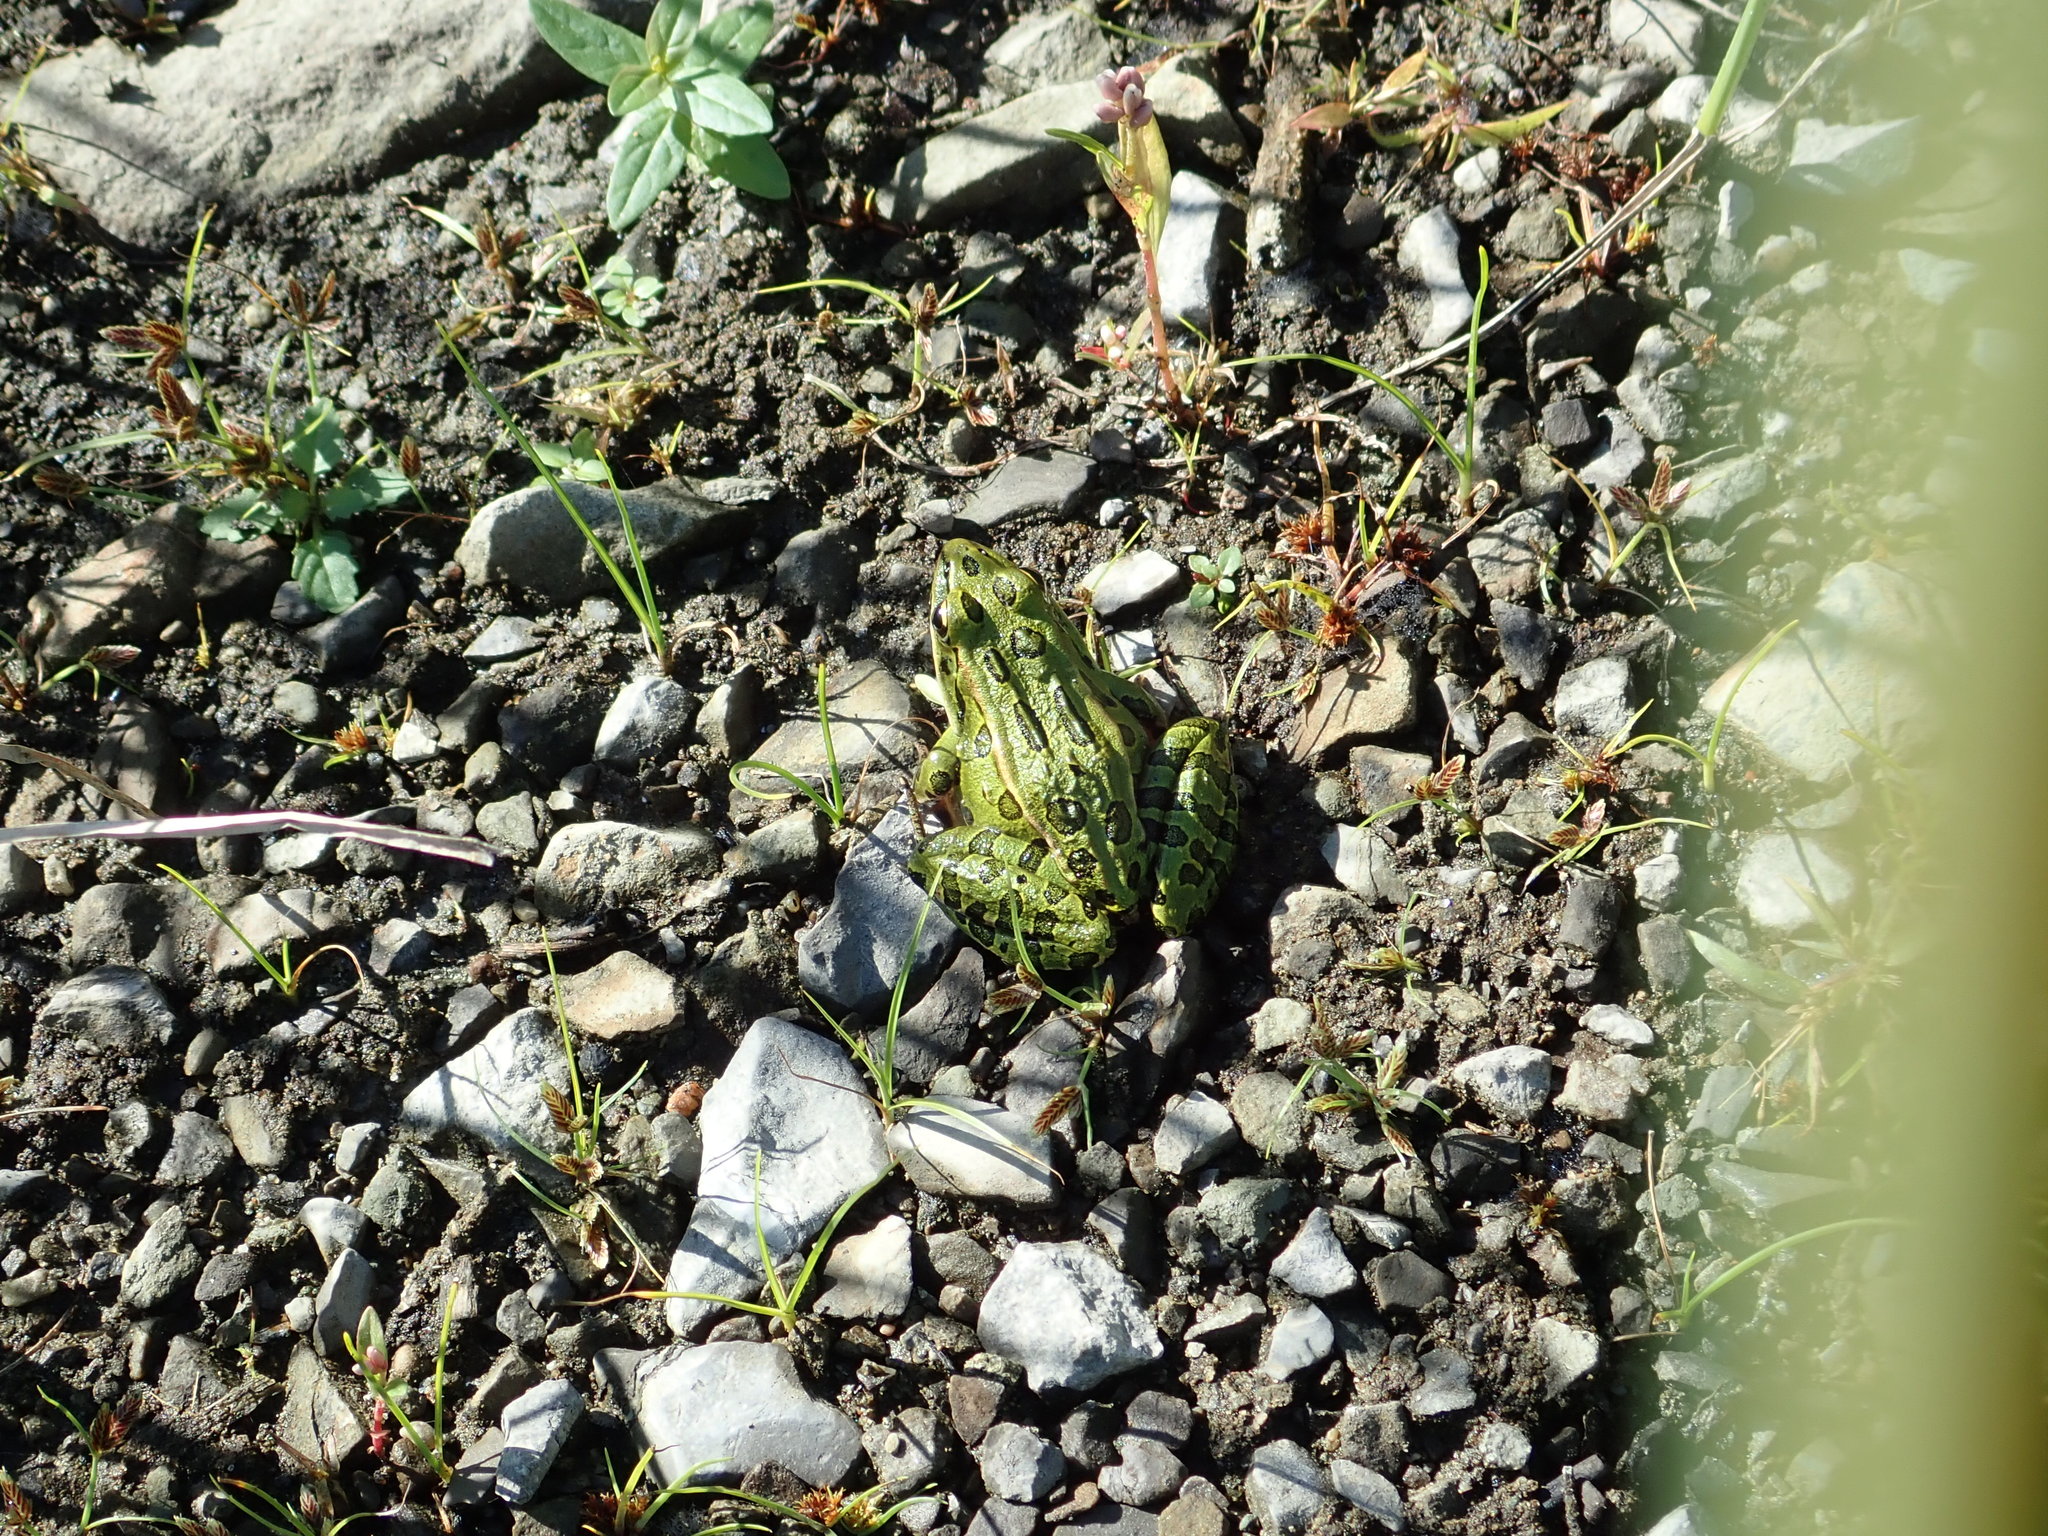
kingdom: Animalia
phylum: Chordata
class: Amphibia
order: Anura
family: Ranidae
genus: Lithobates
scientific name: Lithobates pipiens
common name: Northern leopard frog
